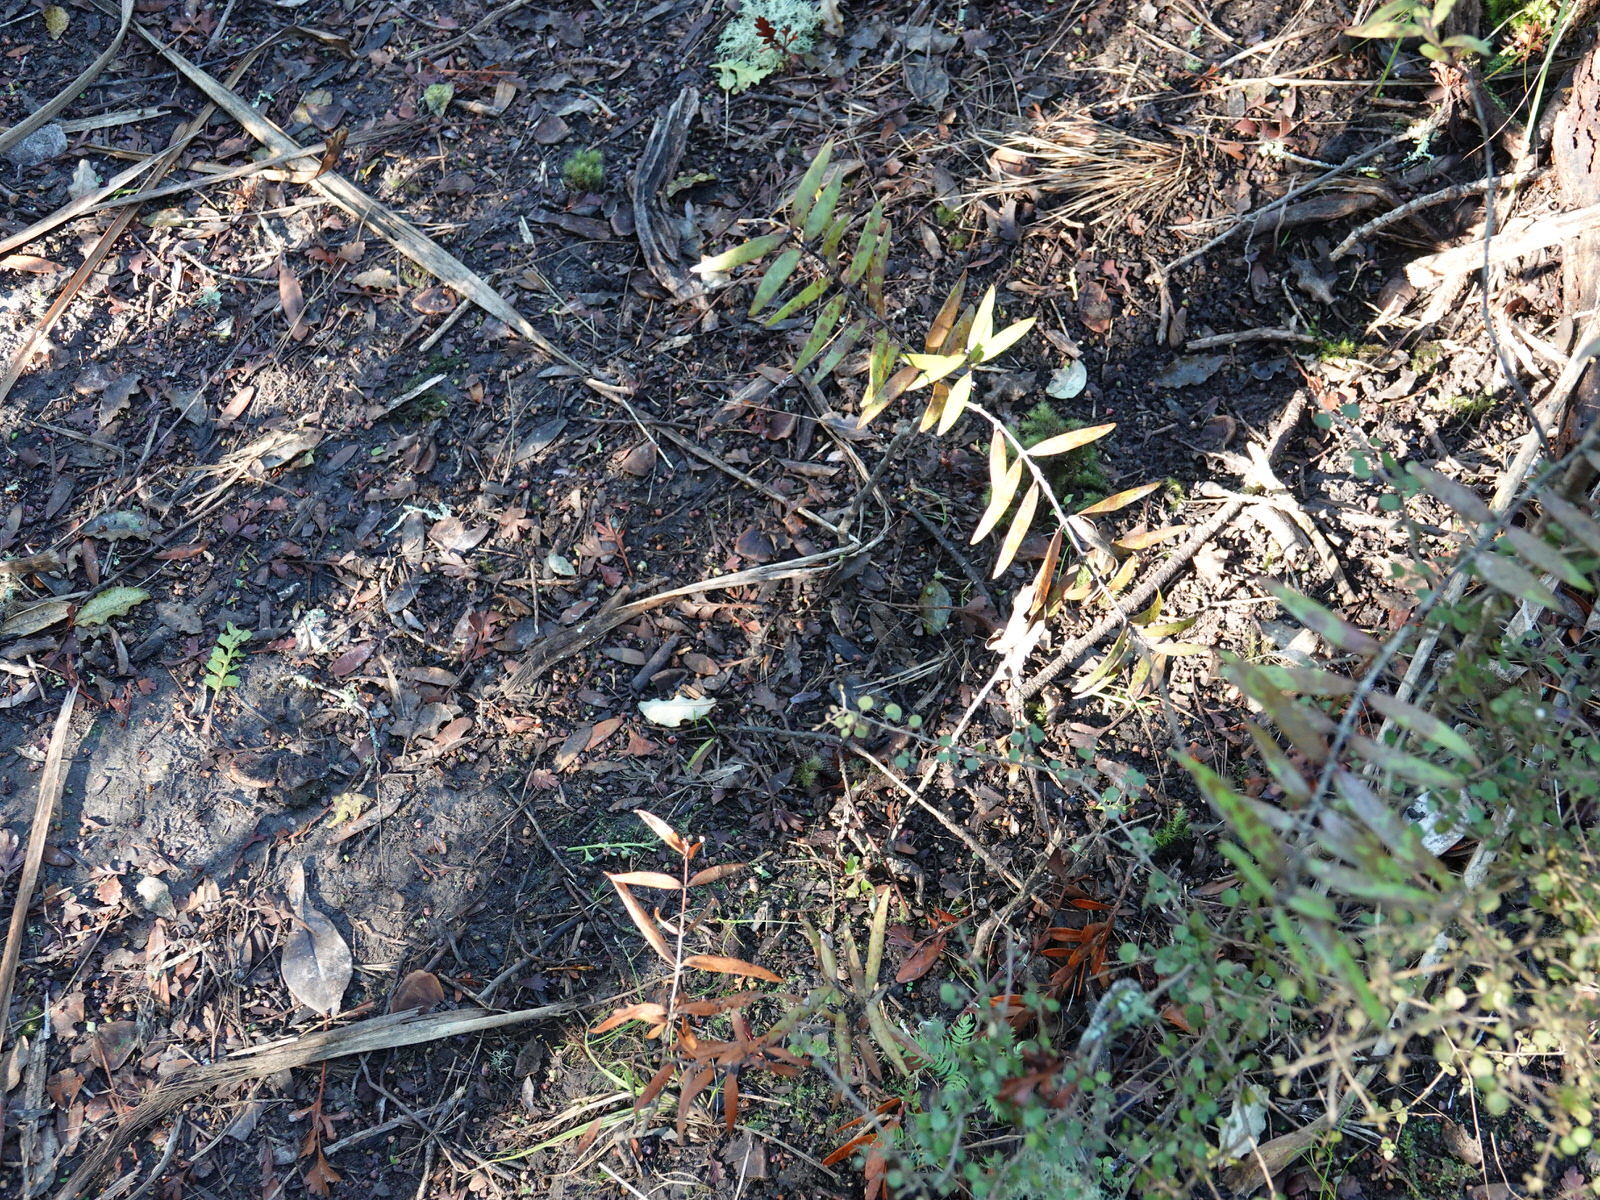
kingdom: Plantae
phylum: Tracheophyta
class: Pinopsida
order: Pinales
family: Araucariaceae
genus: Agathis
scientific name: Agathis australis
